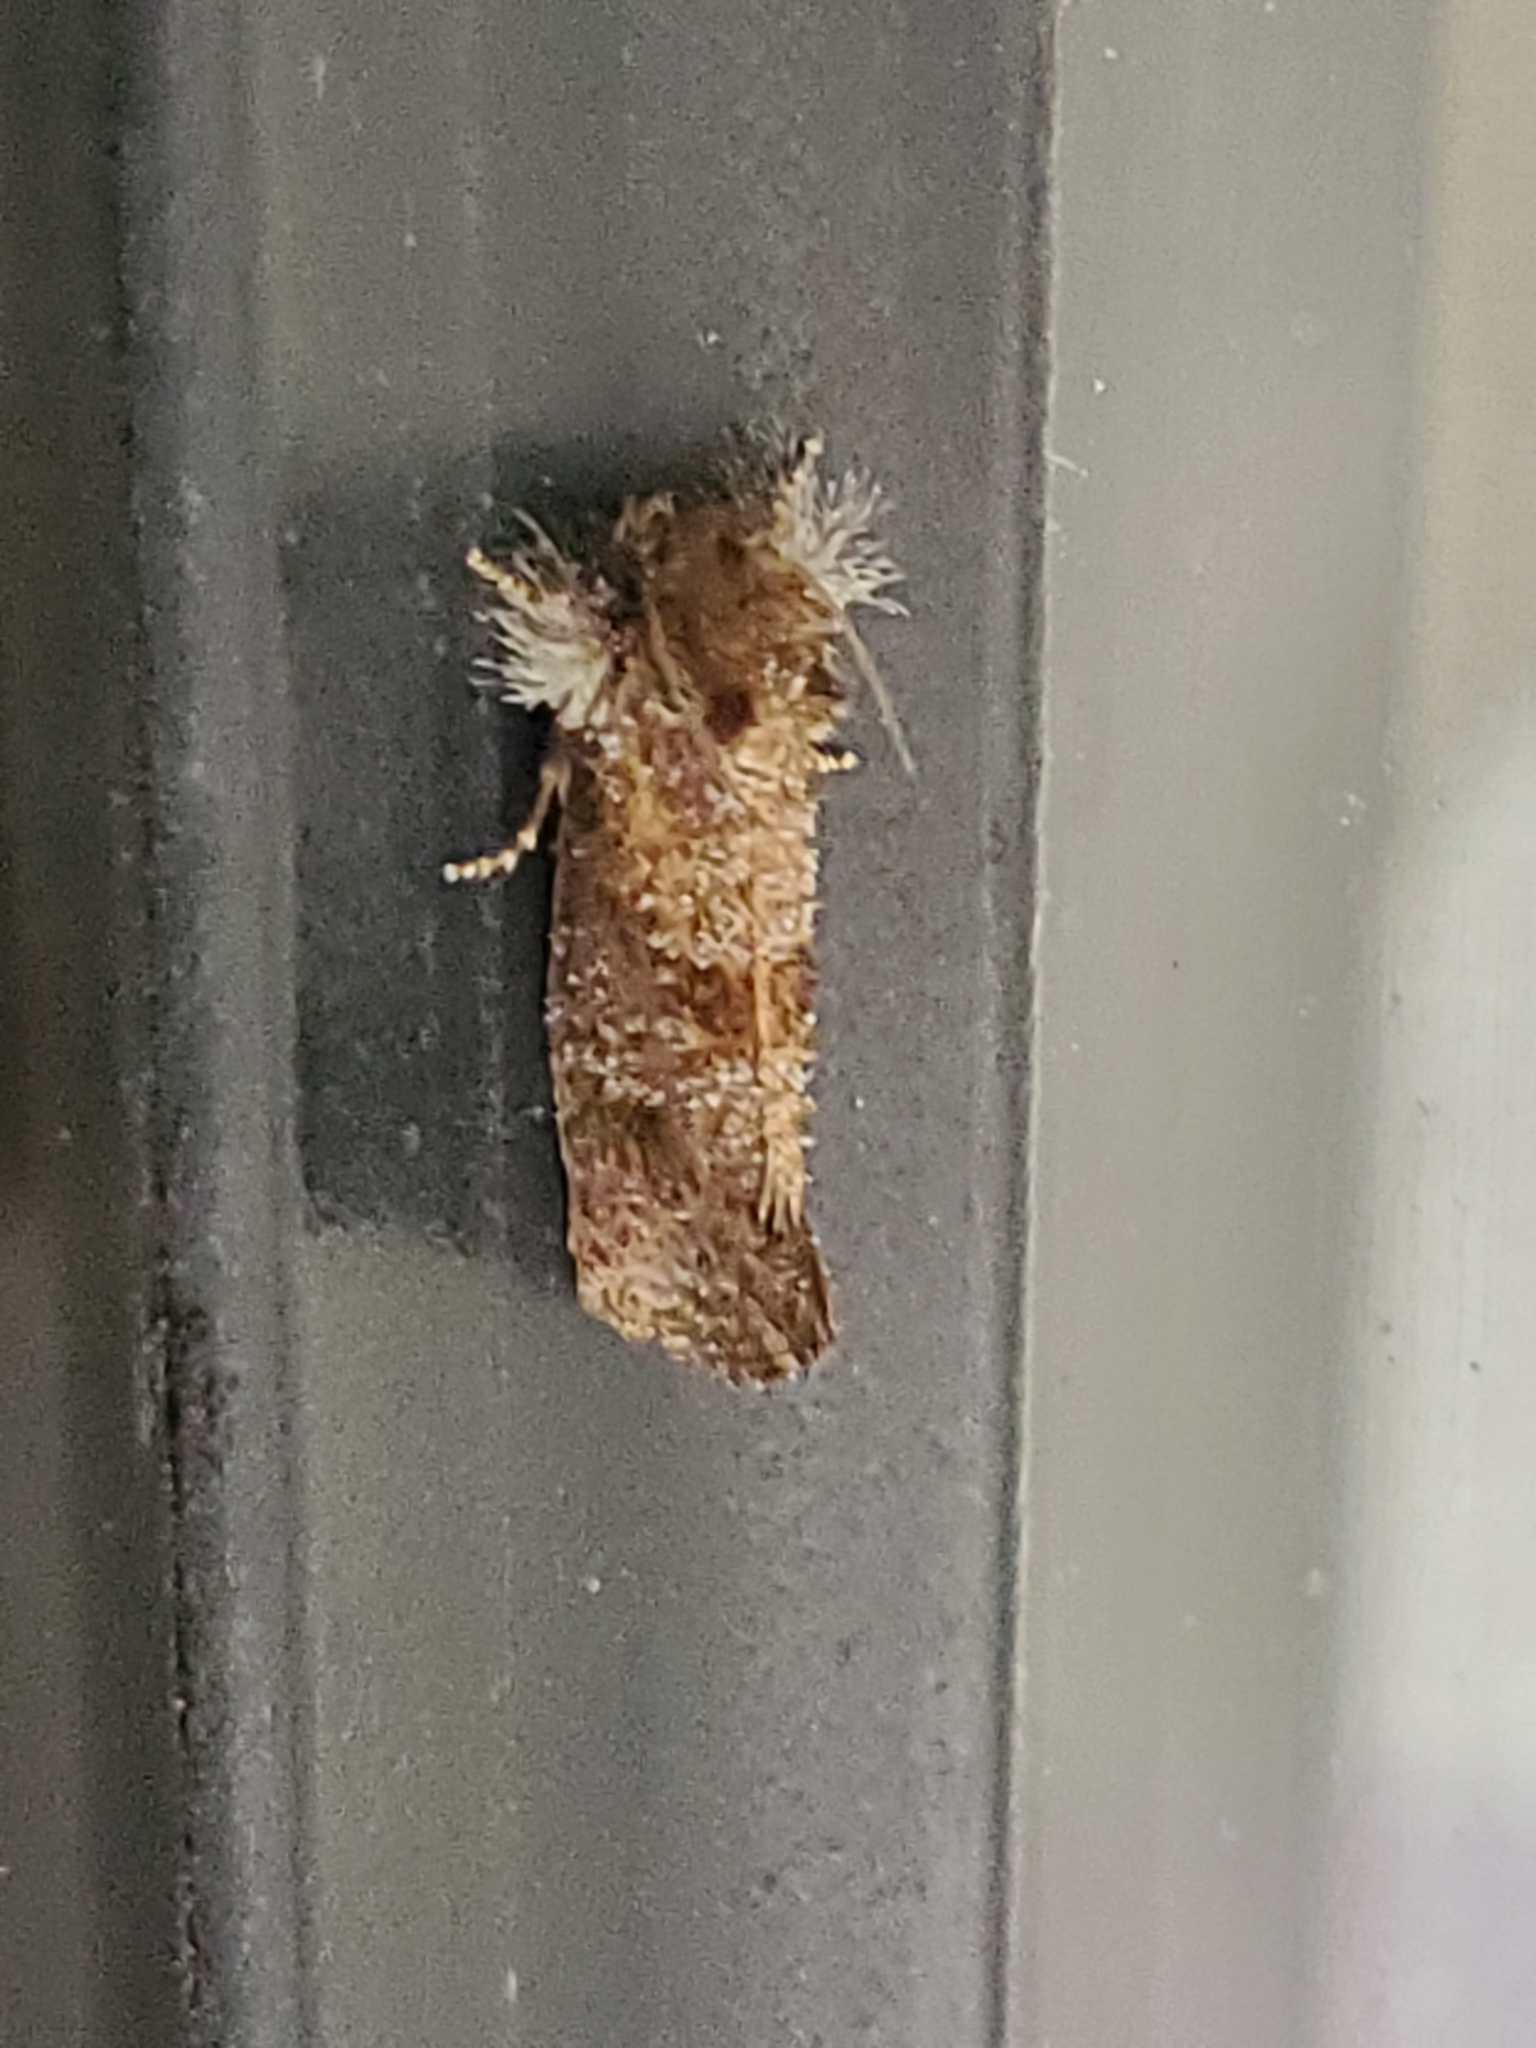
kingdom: Animalia
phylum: Arthropoda
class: Insecta
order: Lepidoptera
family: Tineidae
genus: Acrolophus
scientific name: Acrolophus panamae
